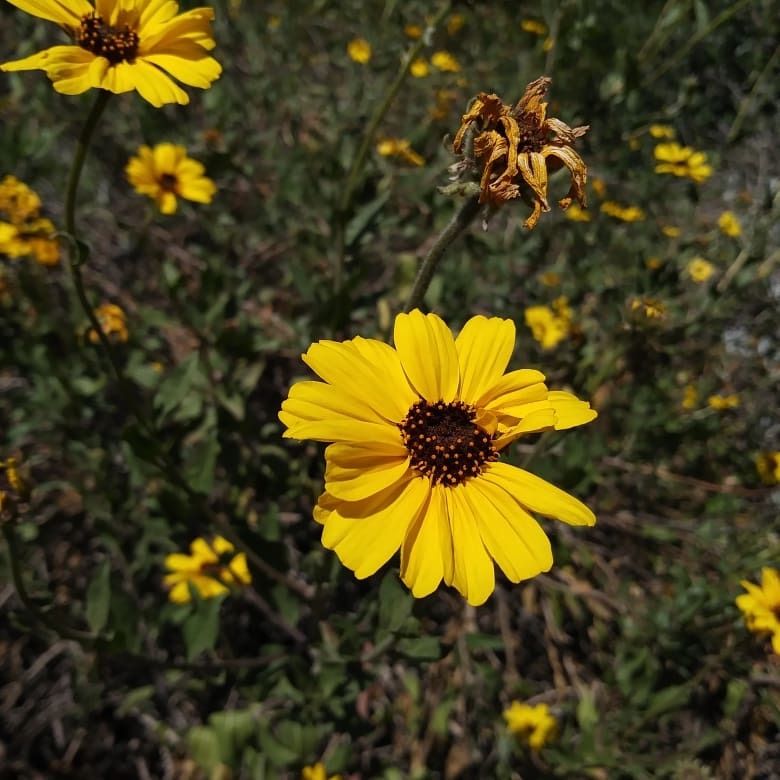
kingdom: Plantae
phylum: Tracheophyta
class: Magnoliopsida
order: Asterales
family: Asteraceae
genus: Encelia
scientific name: Encelia californica
